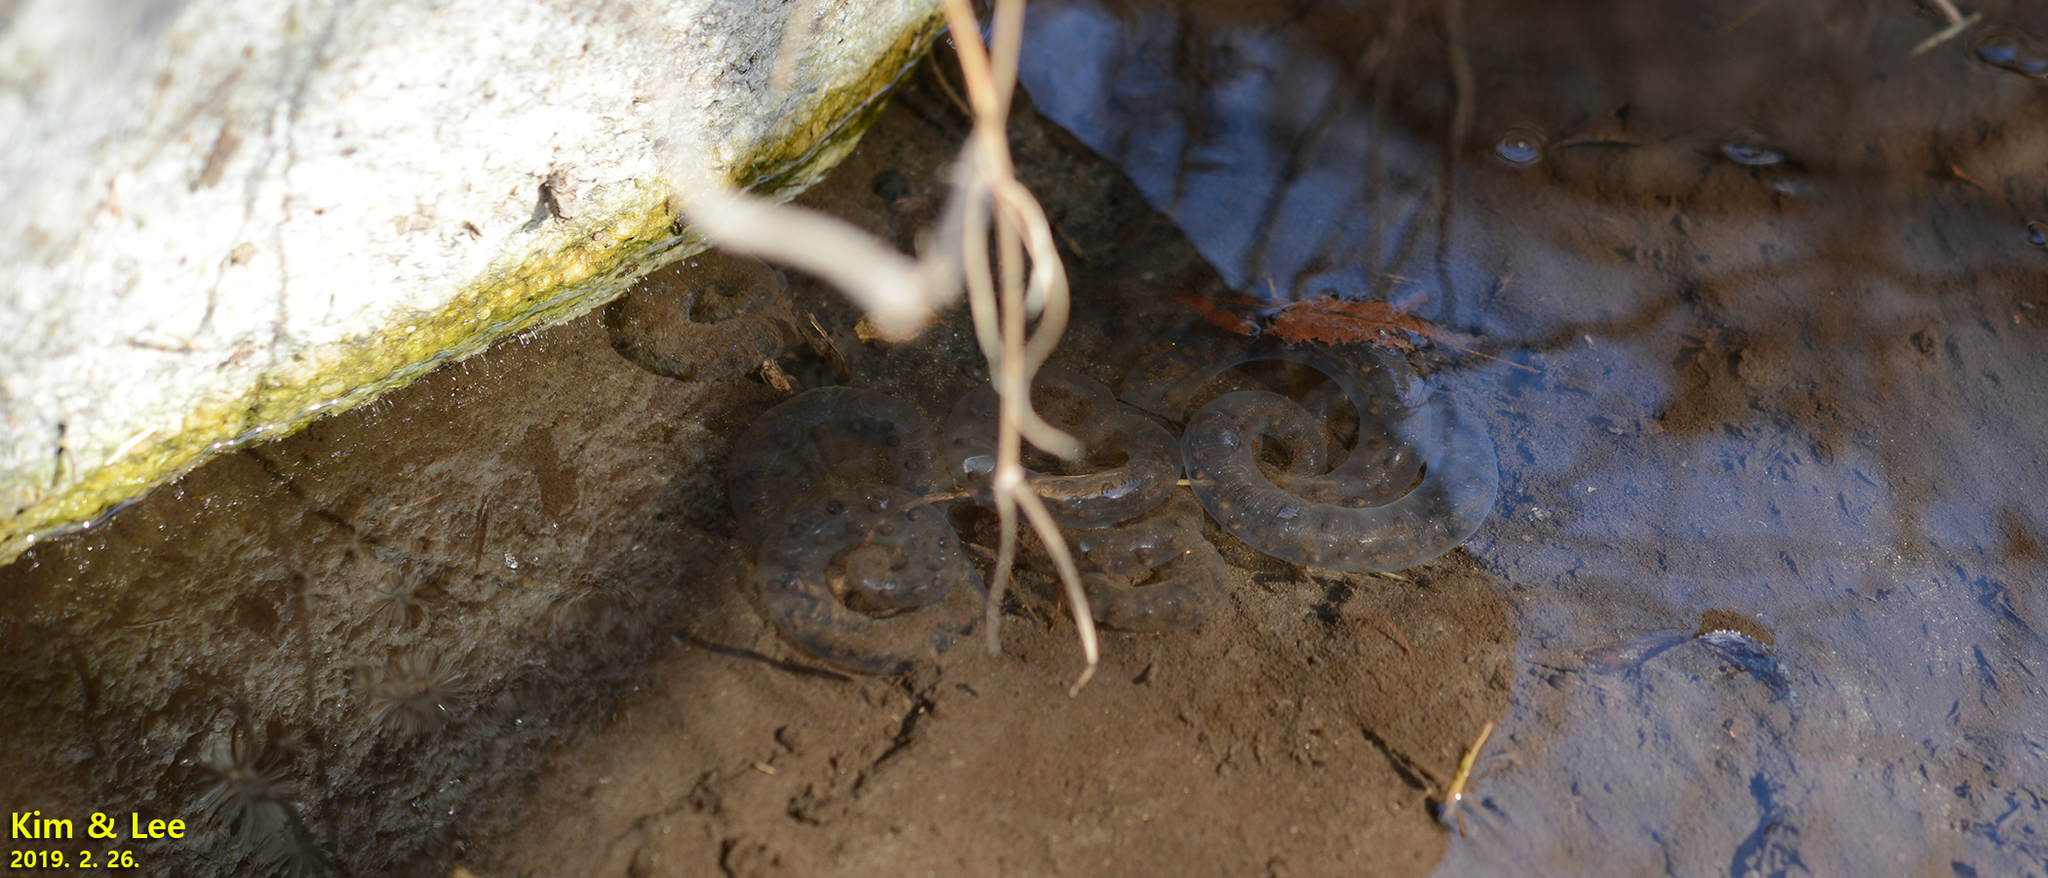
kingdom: Animalia
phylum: Chordata
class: Amphibia
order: Caudata
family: Hynobiidae
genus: Hynobius
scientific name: Hynobius leechii
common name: Gensan salamander
